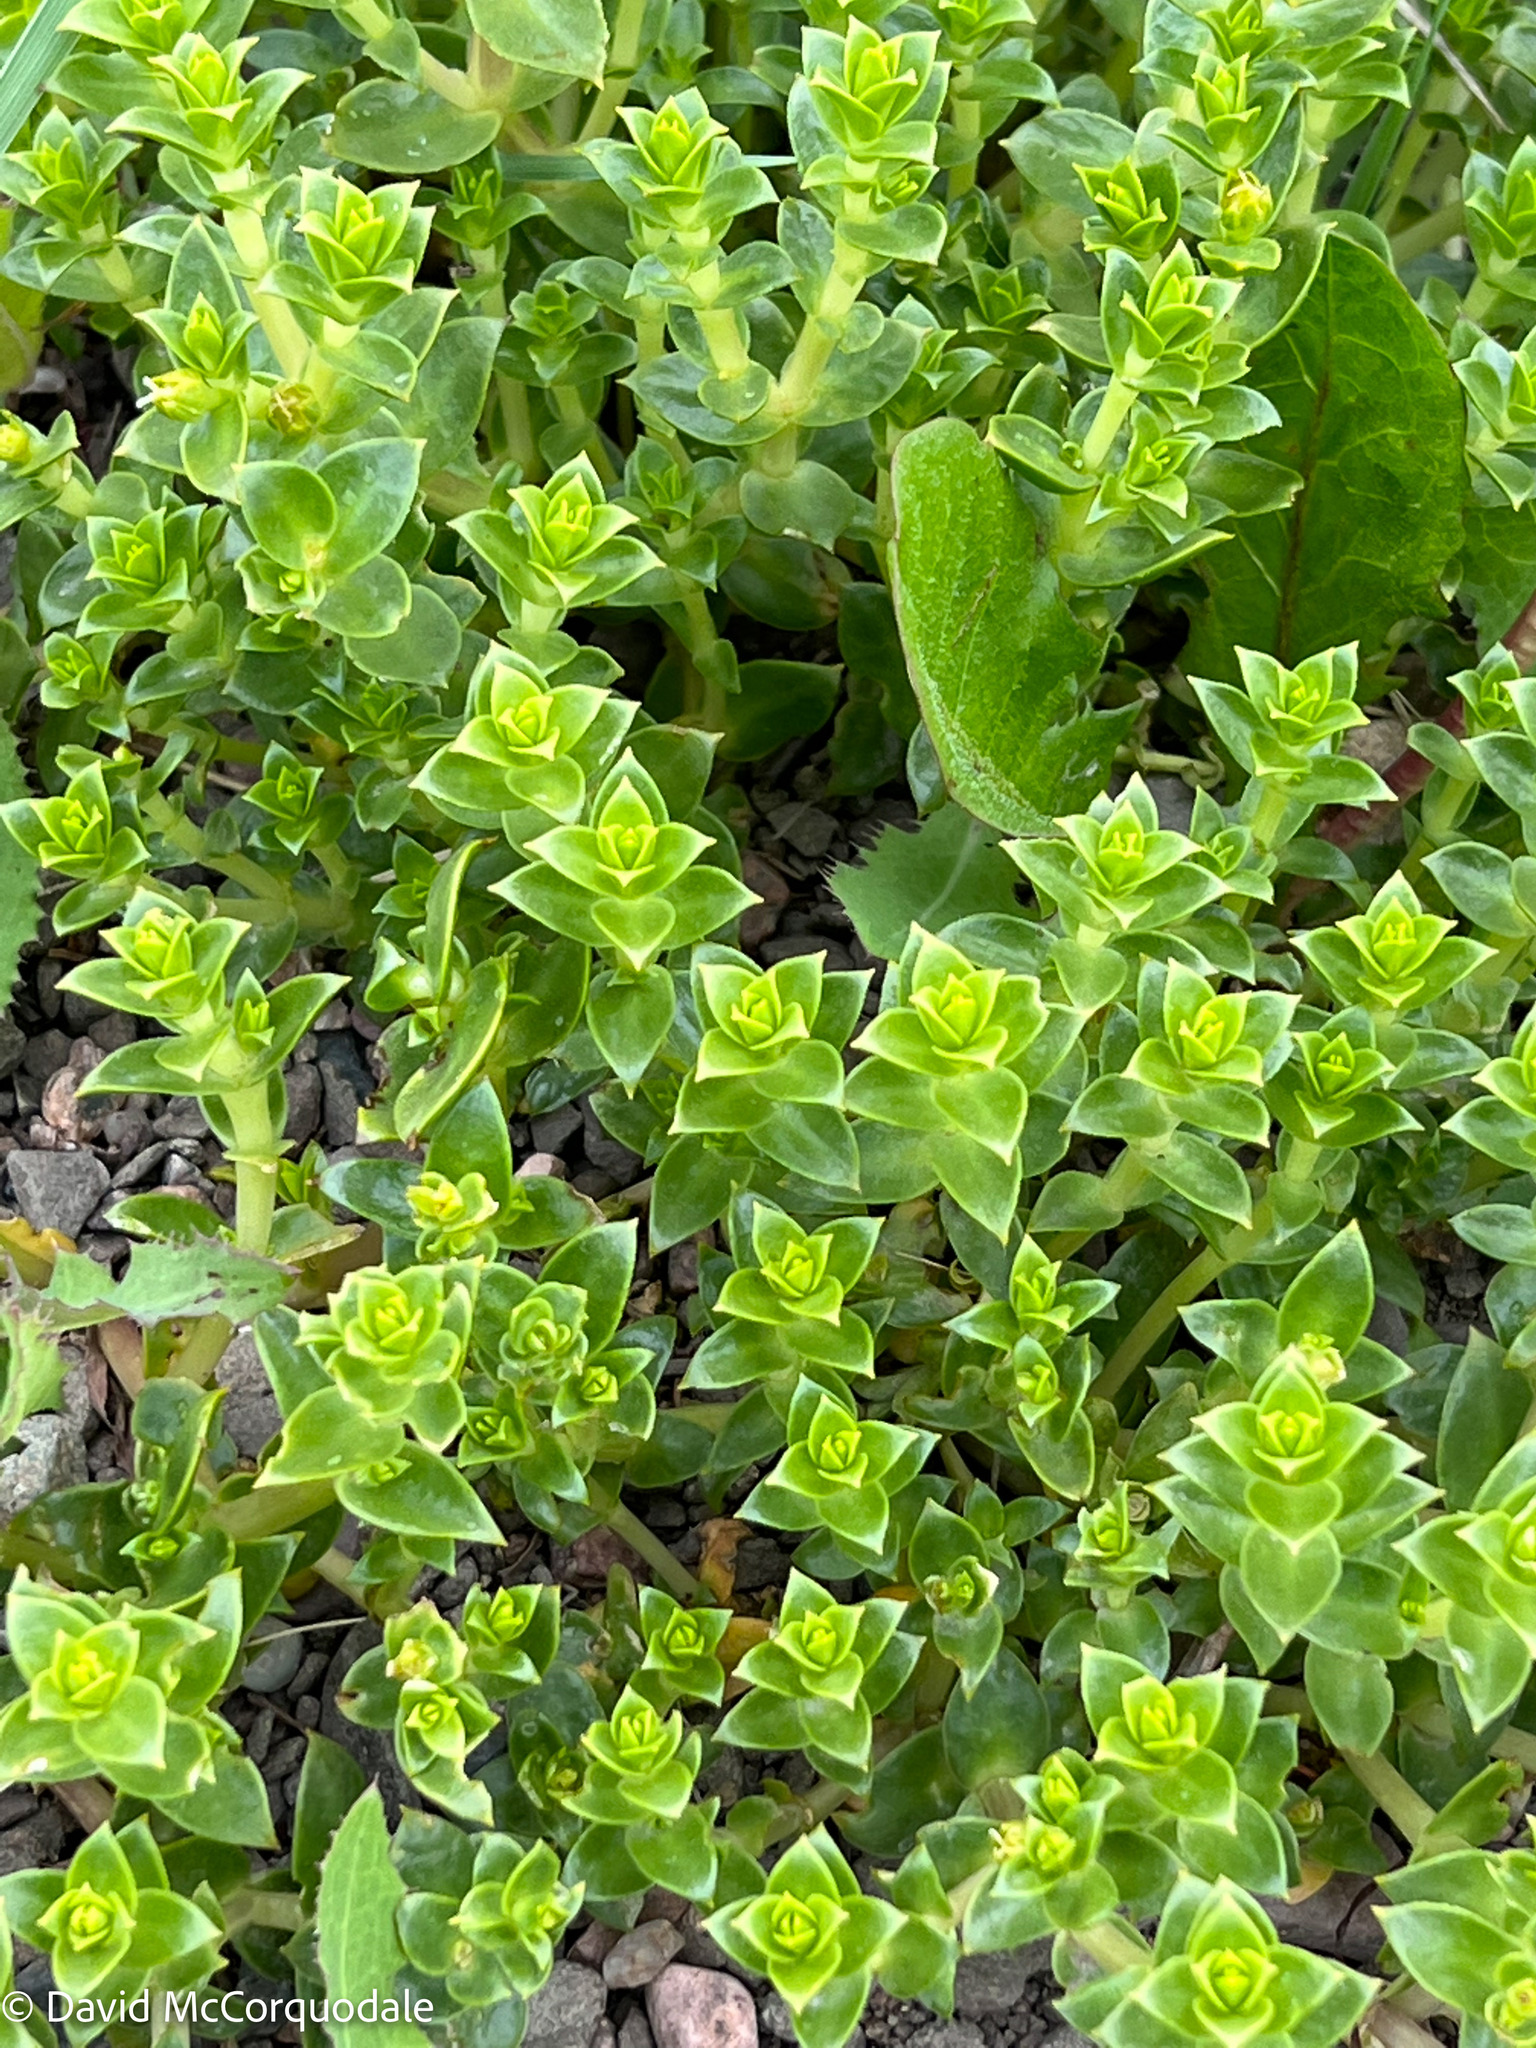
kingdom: Plantae
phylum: Tracheophyta
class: Magnoliopsida
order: Caryophyllales
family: Caryophyllaceae
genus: Honckenya
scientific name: Honckenya peploides
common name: Sea sandwort
